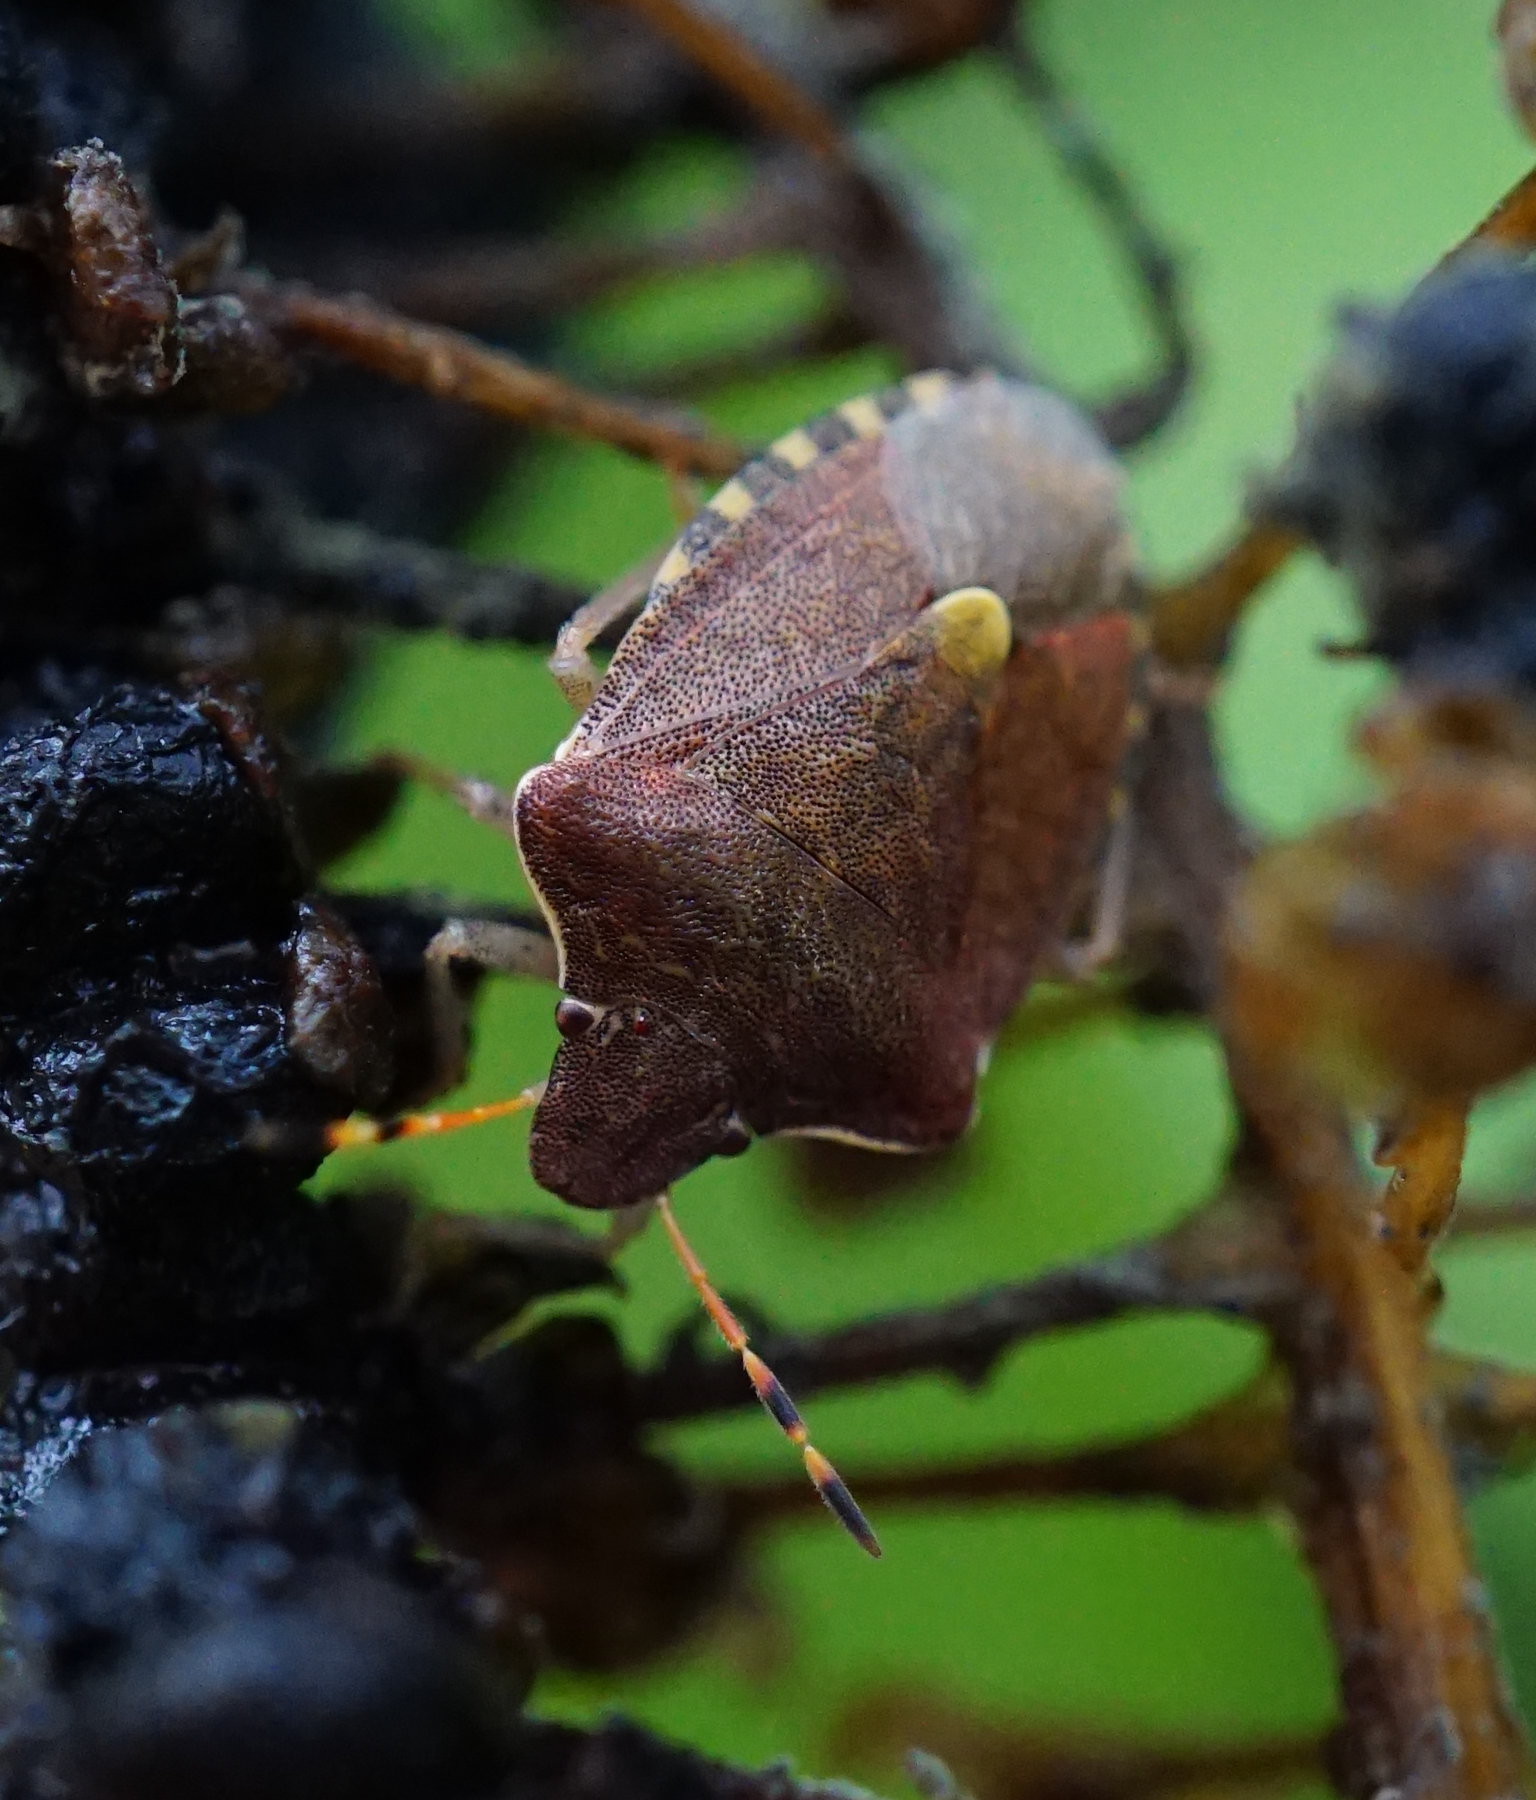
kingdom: Animalia
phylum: Arthropoda
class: Insecta
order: Hemiptera
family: Pentatomidae
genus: Holcostethus
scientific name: Holcostethus strictus
